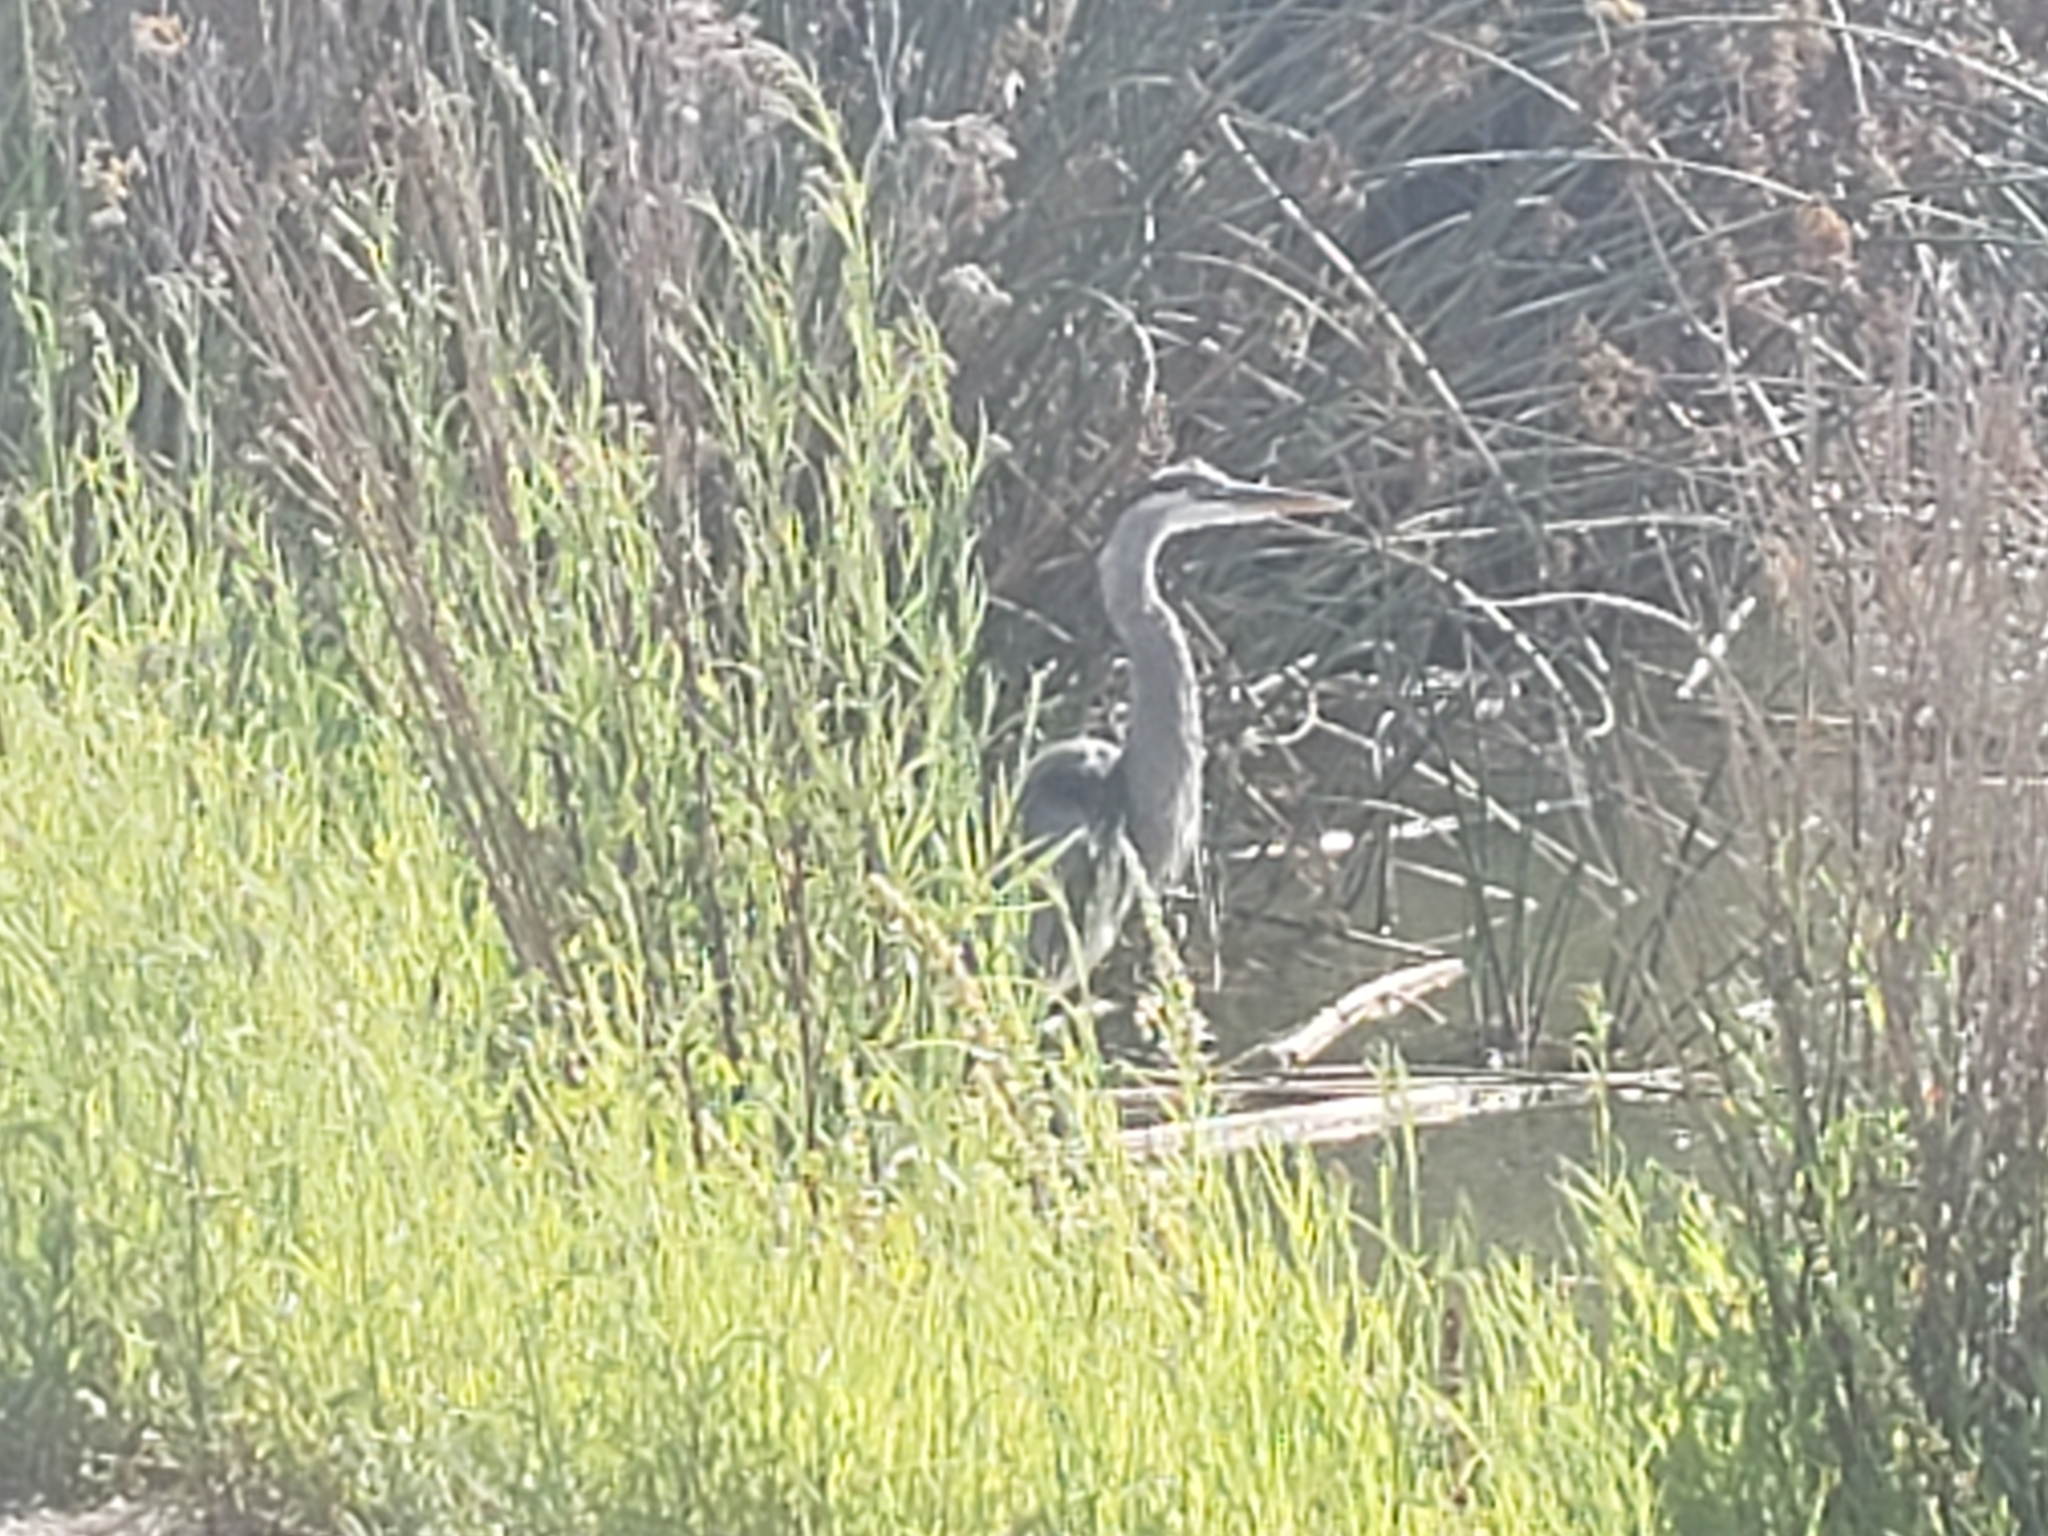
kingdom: Animalia
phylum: Chordata
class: Aves
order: Pelecaniformes
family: Ardeidae
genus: Ardea
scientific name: Ardea herodias
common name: Great blue heron
